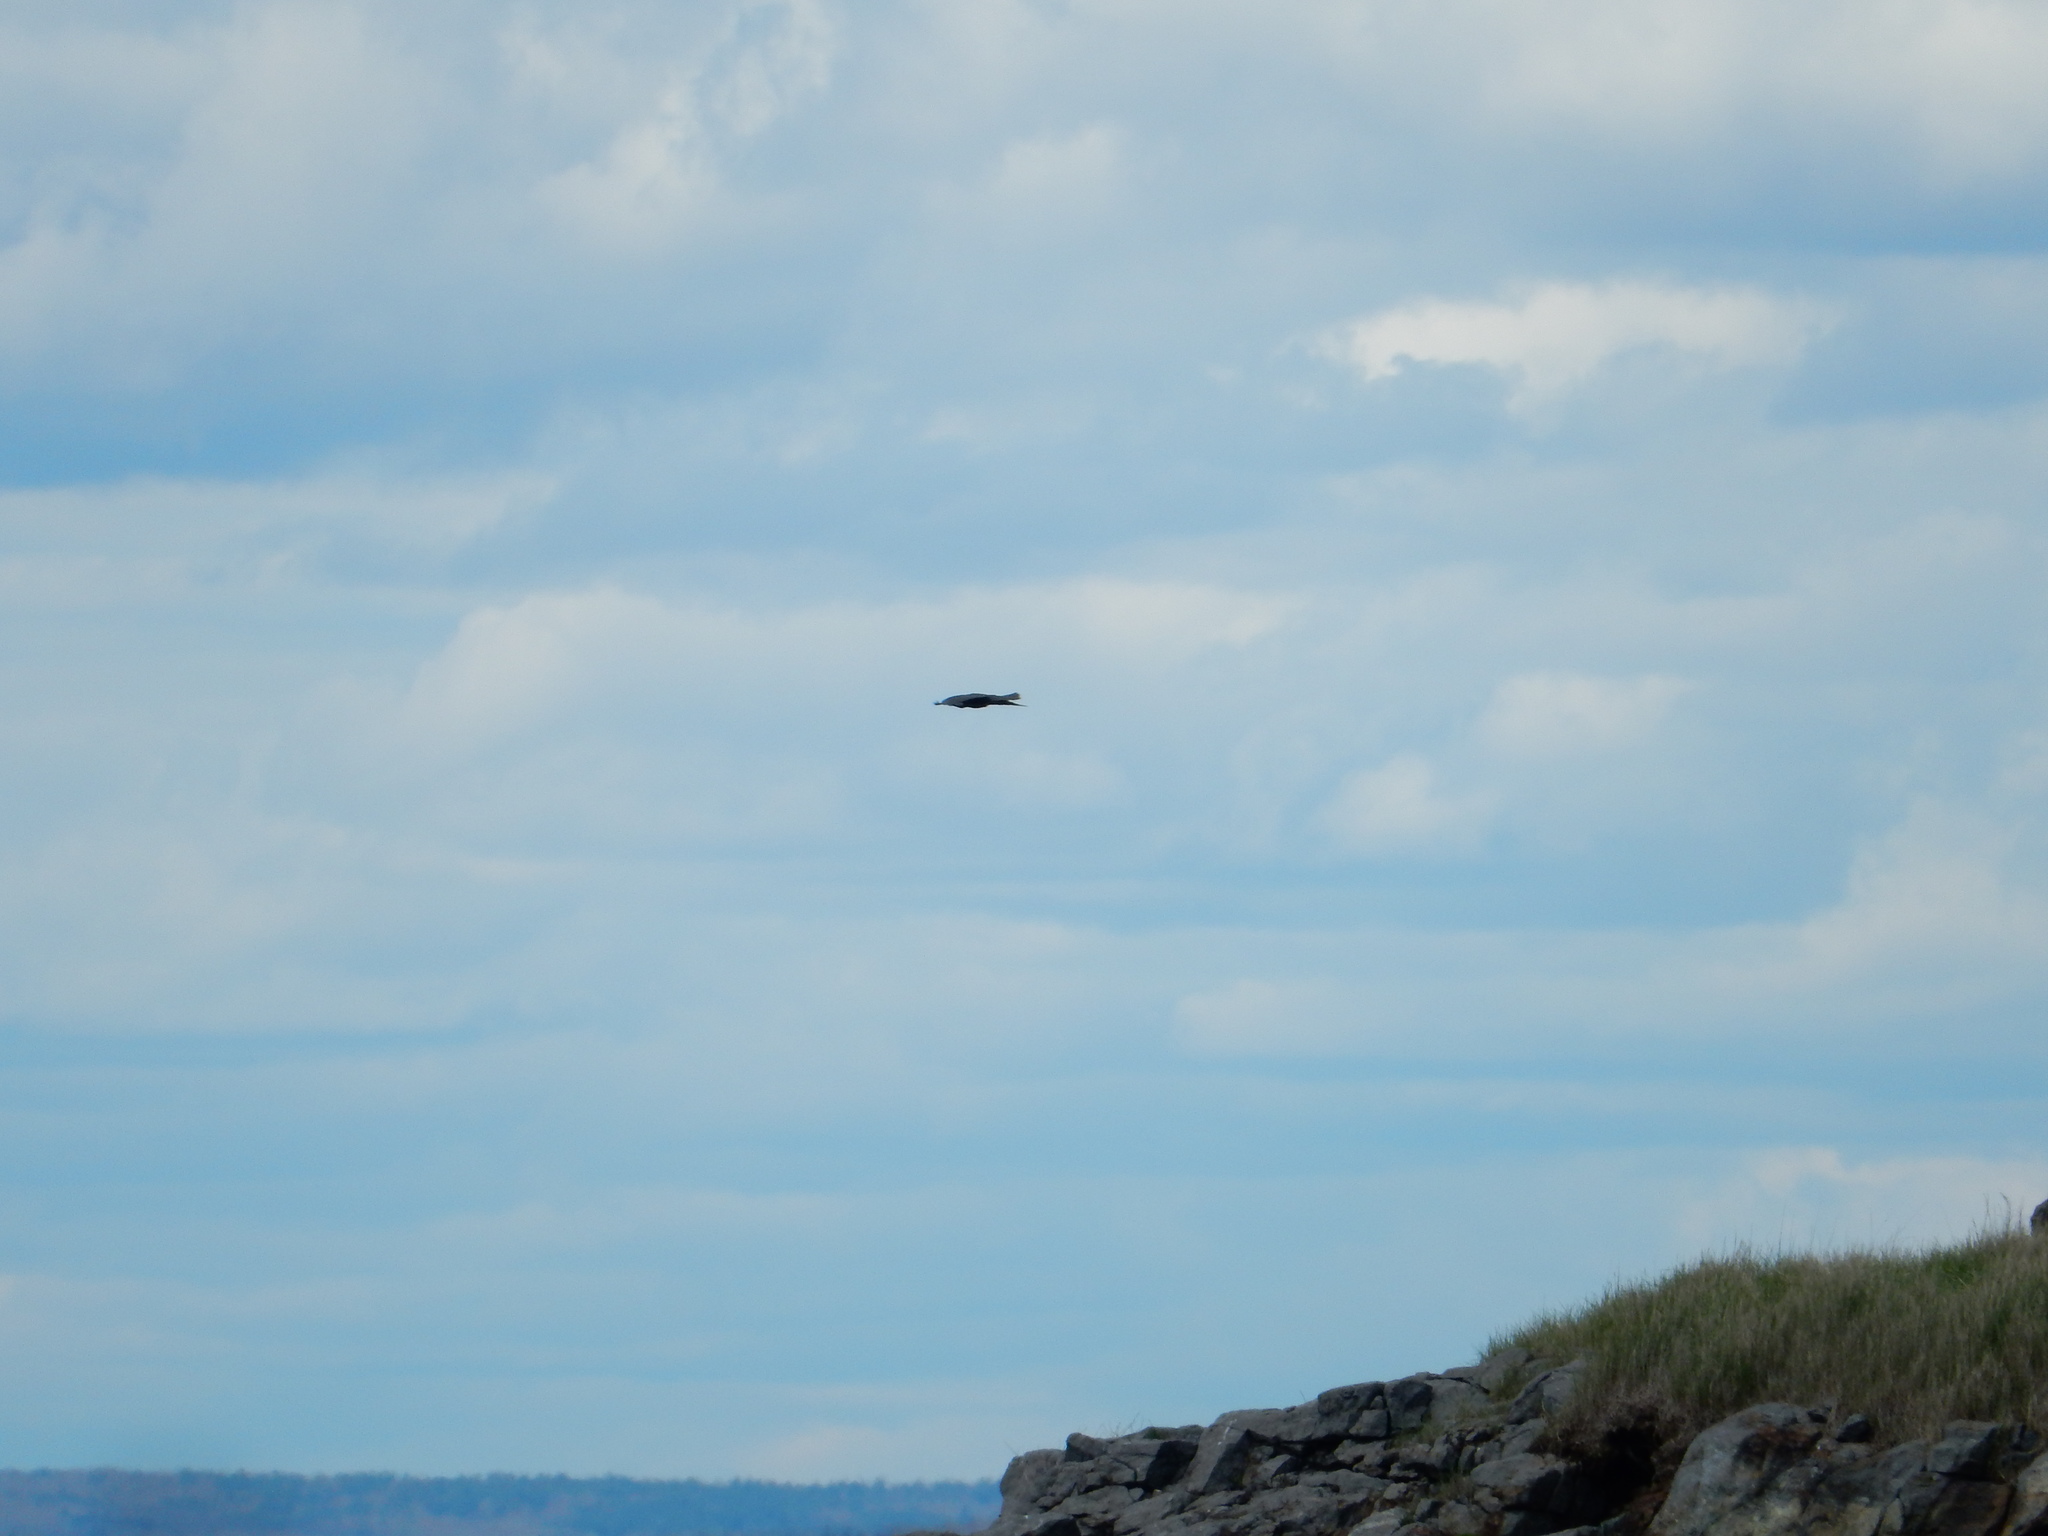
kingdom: Animalia
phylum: Chordata
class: Aves
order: Passeriformes
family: Corvidae
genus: Corvus
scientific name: Corvus corax
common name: Common raven
